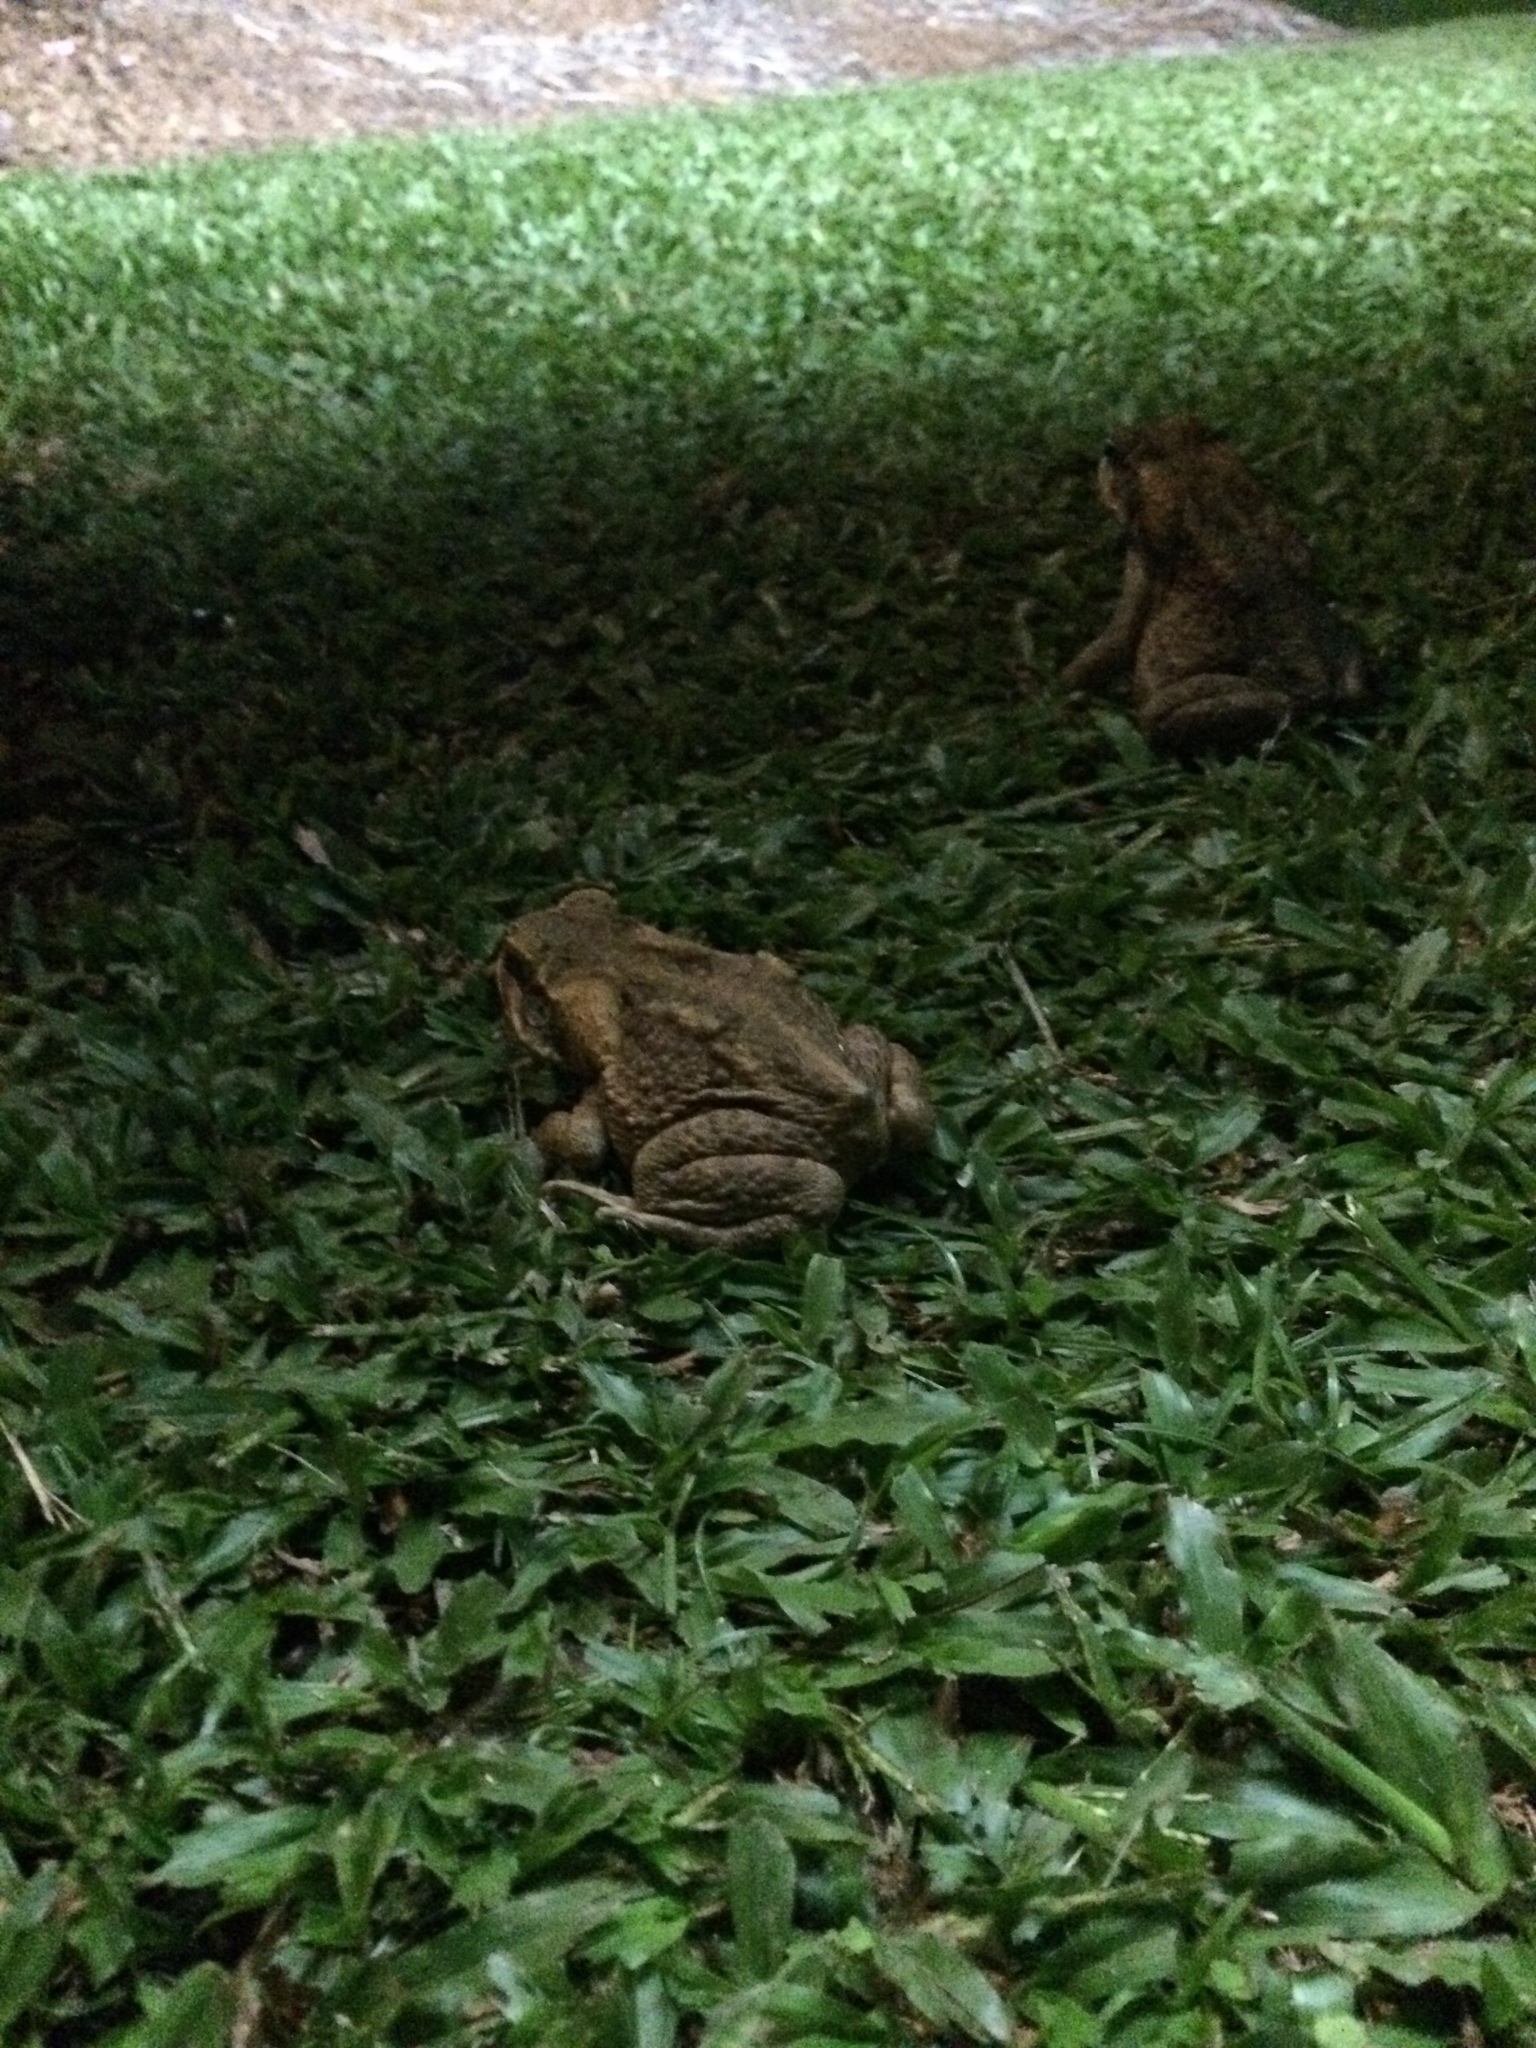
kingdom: Animalia
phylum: Chordata
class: Amphibia
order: Anura
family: Bufonidae
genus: Rhinella
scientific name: Rhinella marina
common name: Cane toad
